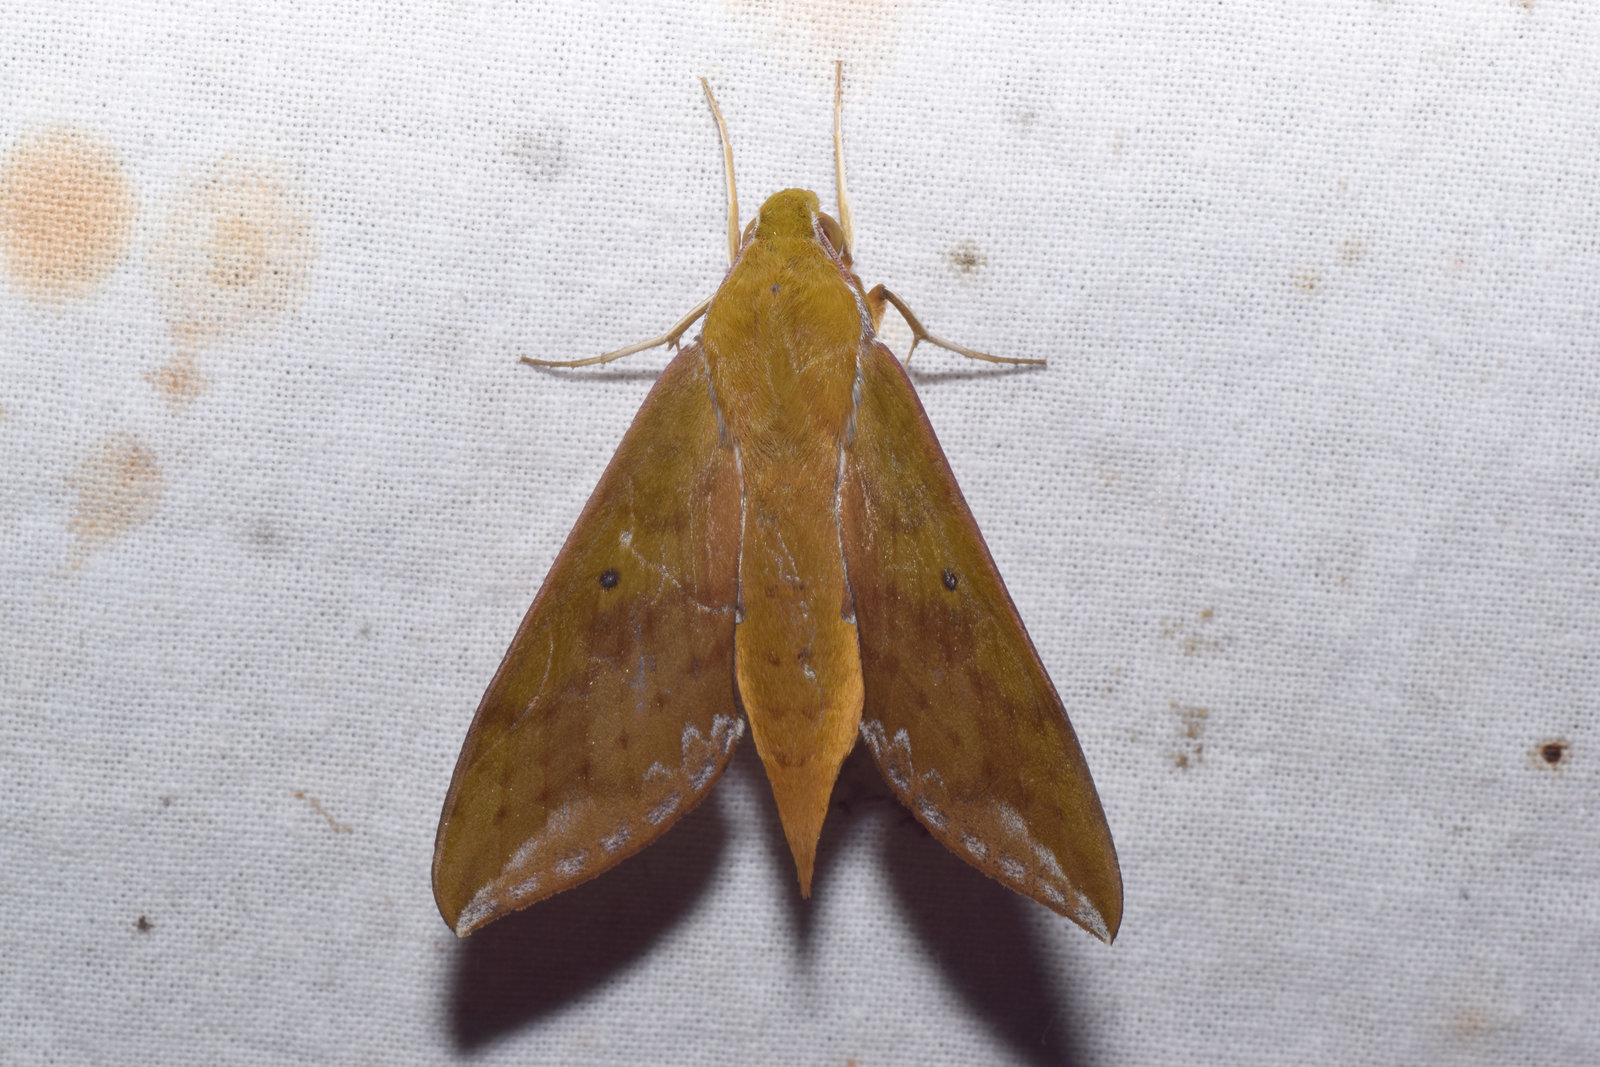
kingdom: Animalia
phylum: Arthropoda
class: Insecta
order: Lepidoptera
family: Sphingidae
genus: Rhagastis
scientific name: Rhagastis olivacea
